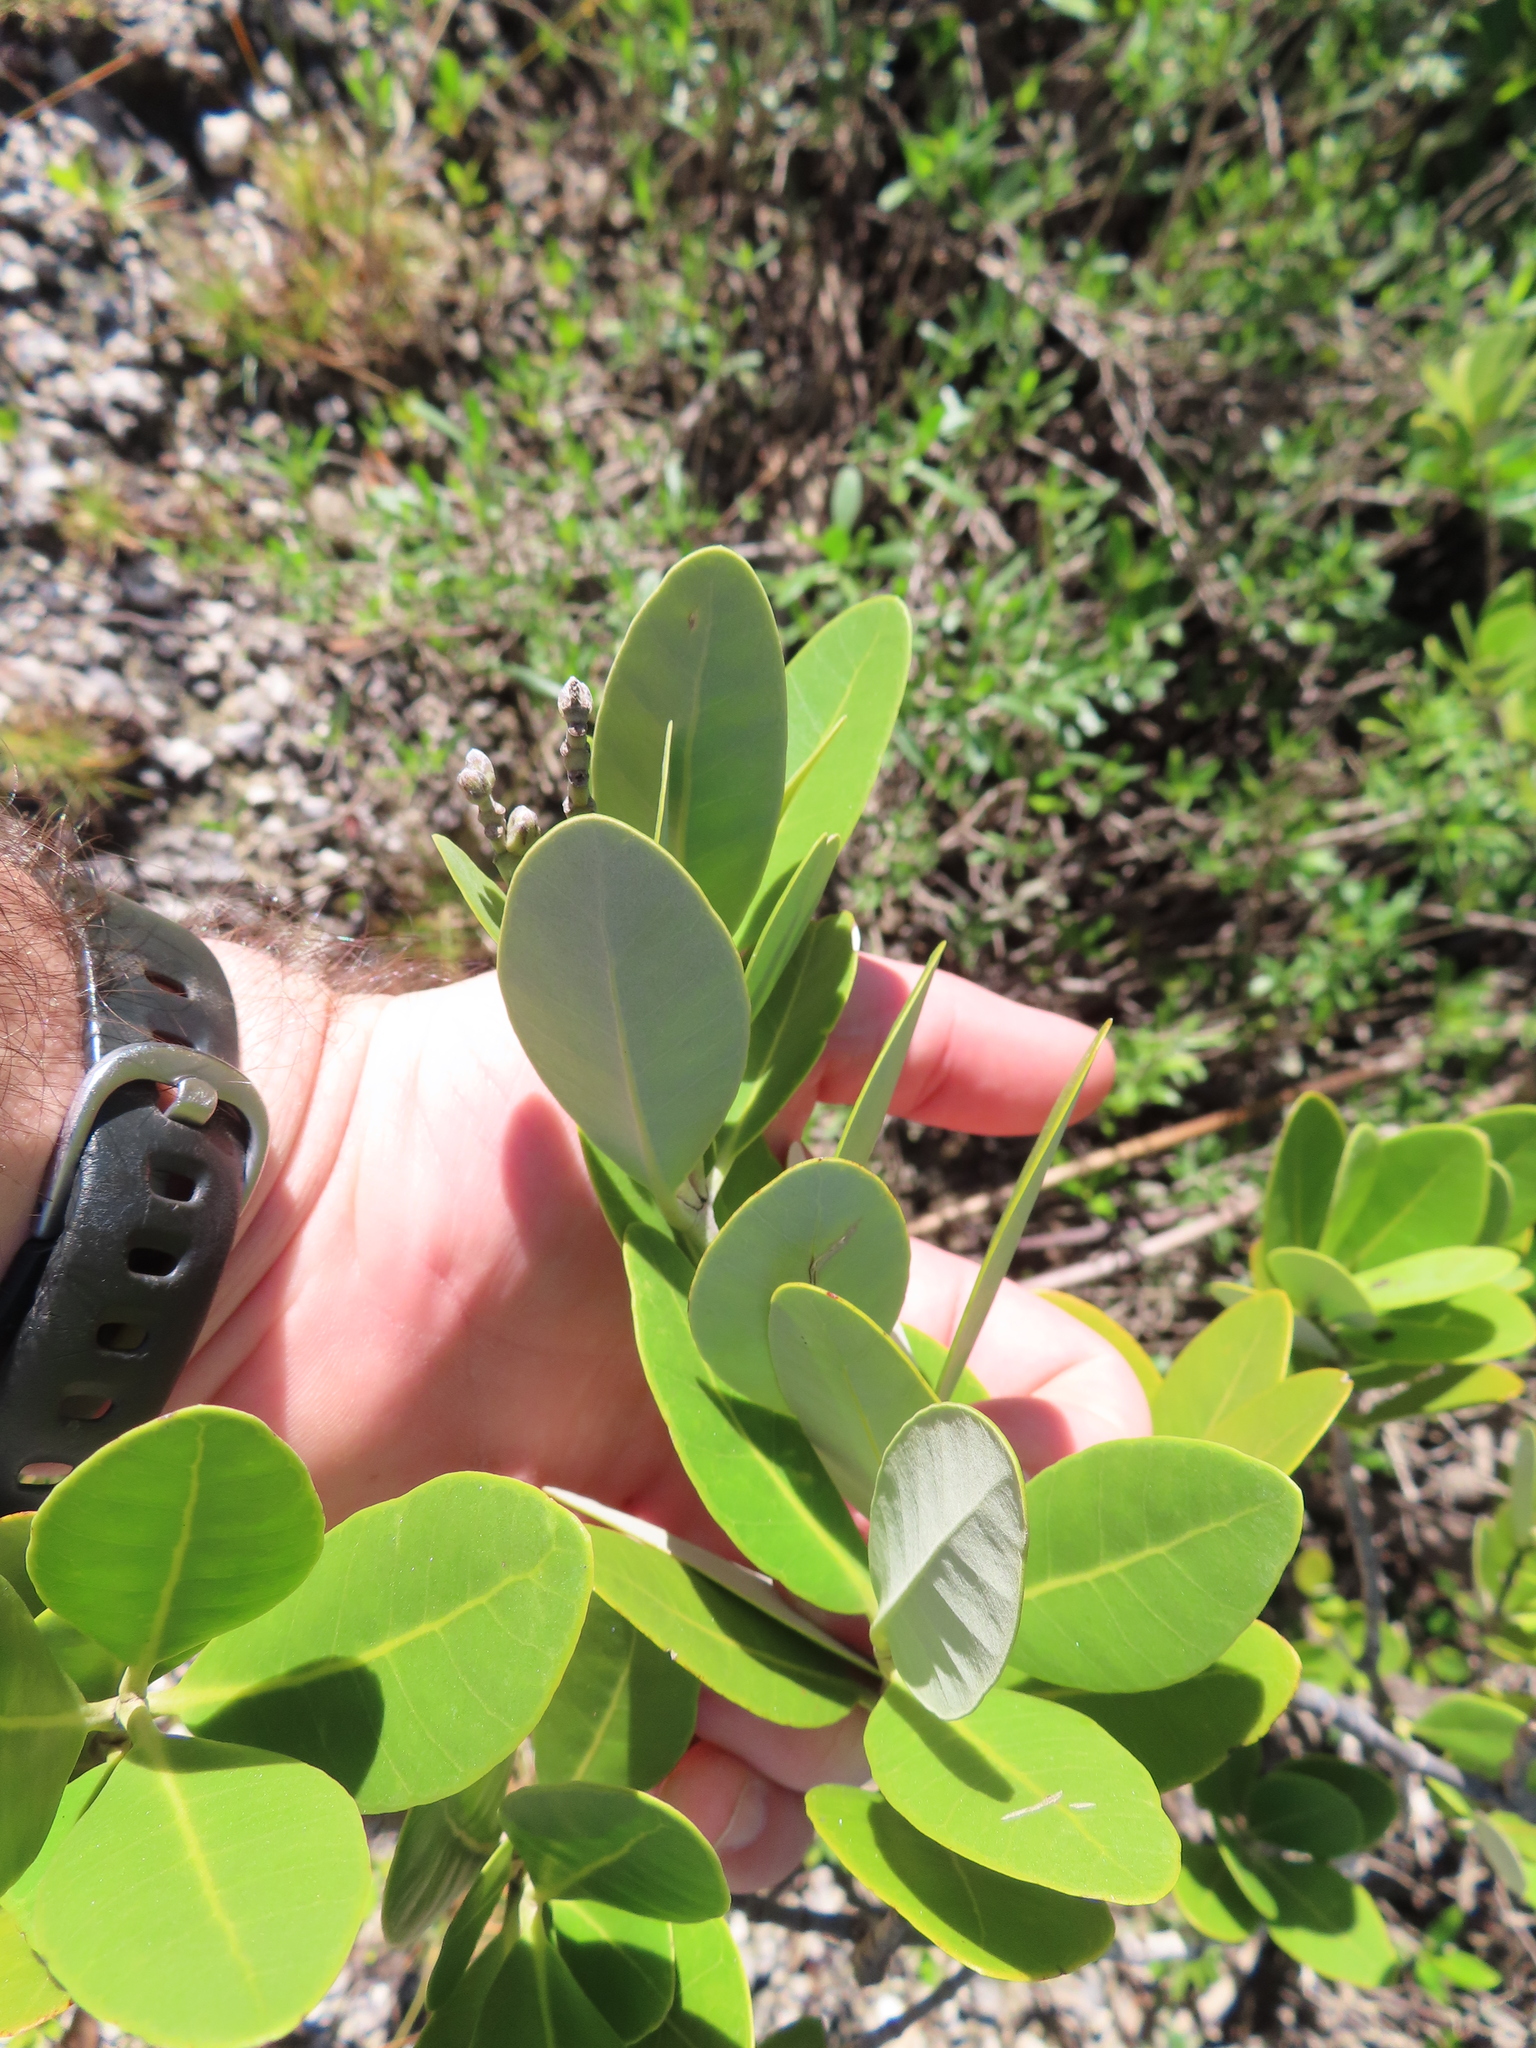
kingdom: Plantae
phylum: Tracheophyta
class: Magnoliopsida
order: Lamiales
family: Acanthaceae
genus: Avicennia
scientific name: Avicennia germinans
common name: Black mangrove
